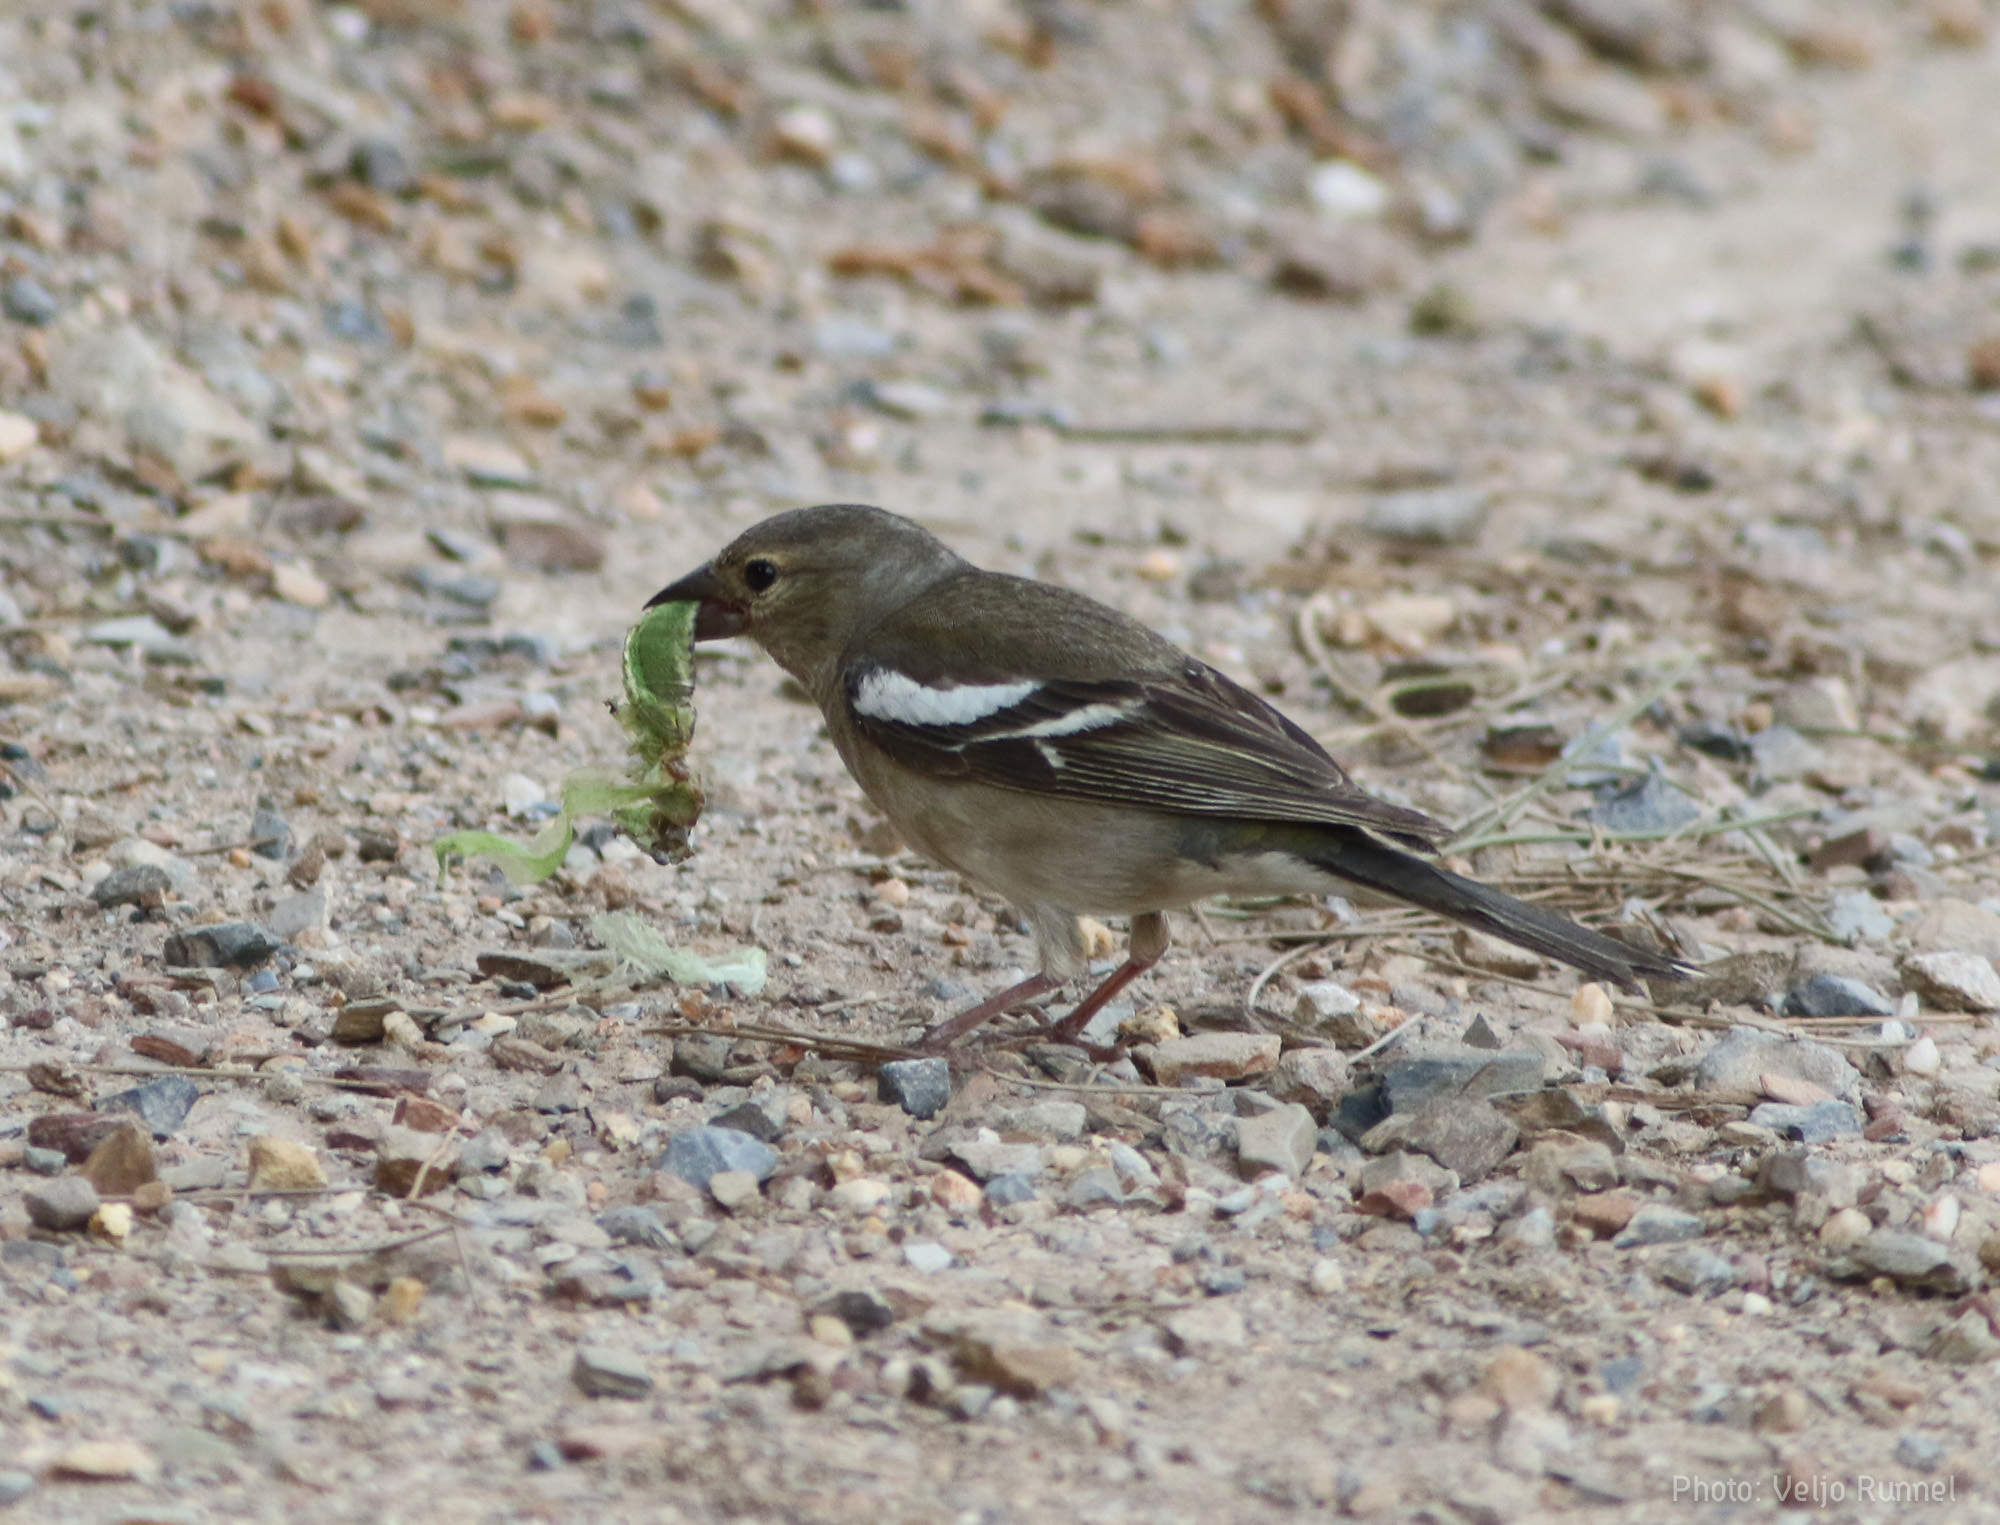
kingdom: Animalia
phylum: Chordata
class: Aves
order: Passeriformes
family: Fringillidae
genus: Fringilla
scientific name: Fringilla coelebs
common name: Common chaffinch
